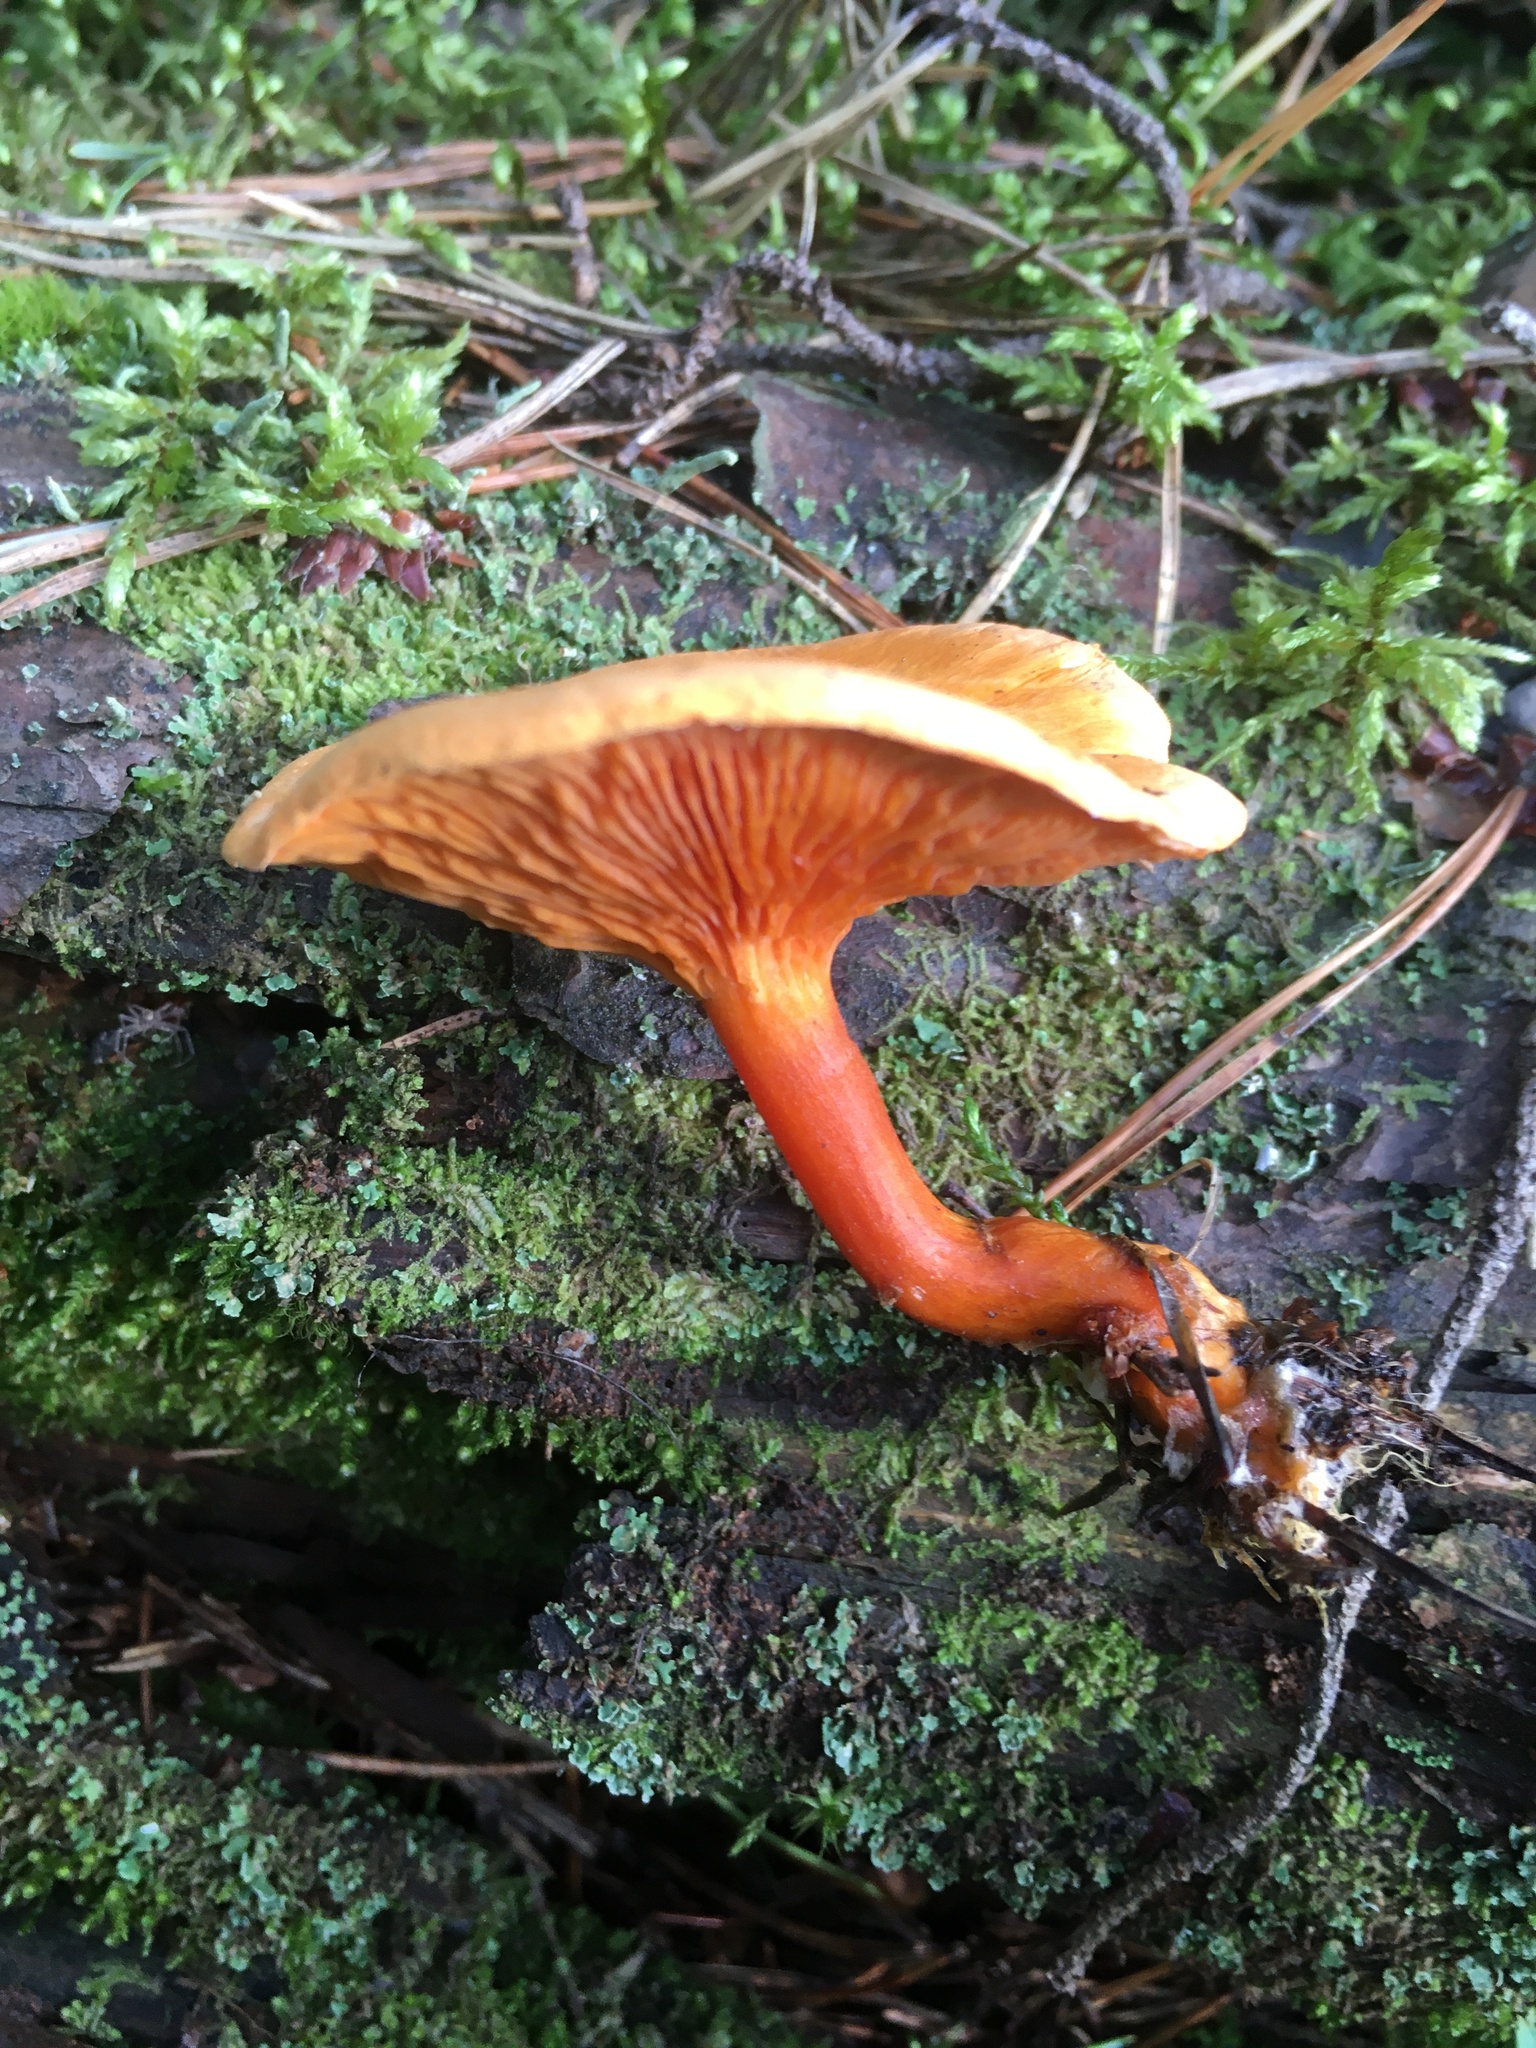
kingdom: Fungi
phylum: Basidiomycota
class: Agaricomycetes
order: Boletales
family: Hygrophoropsidaceae
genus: Hygrophoropsis
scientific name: Hygrophoropsis aurantiaca
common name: False chanterelle
